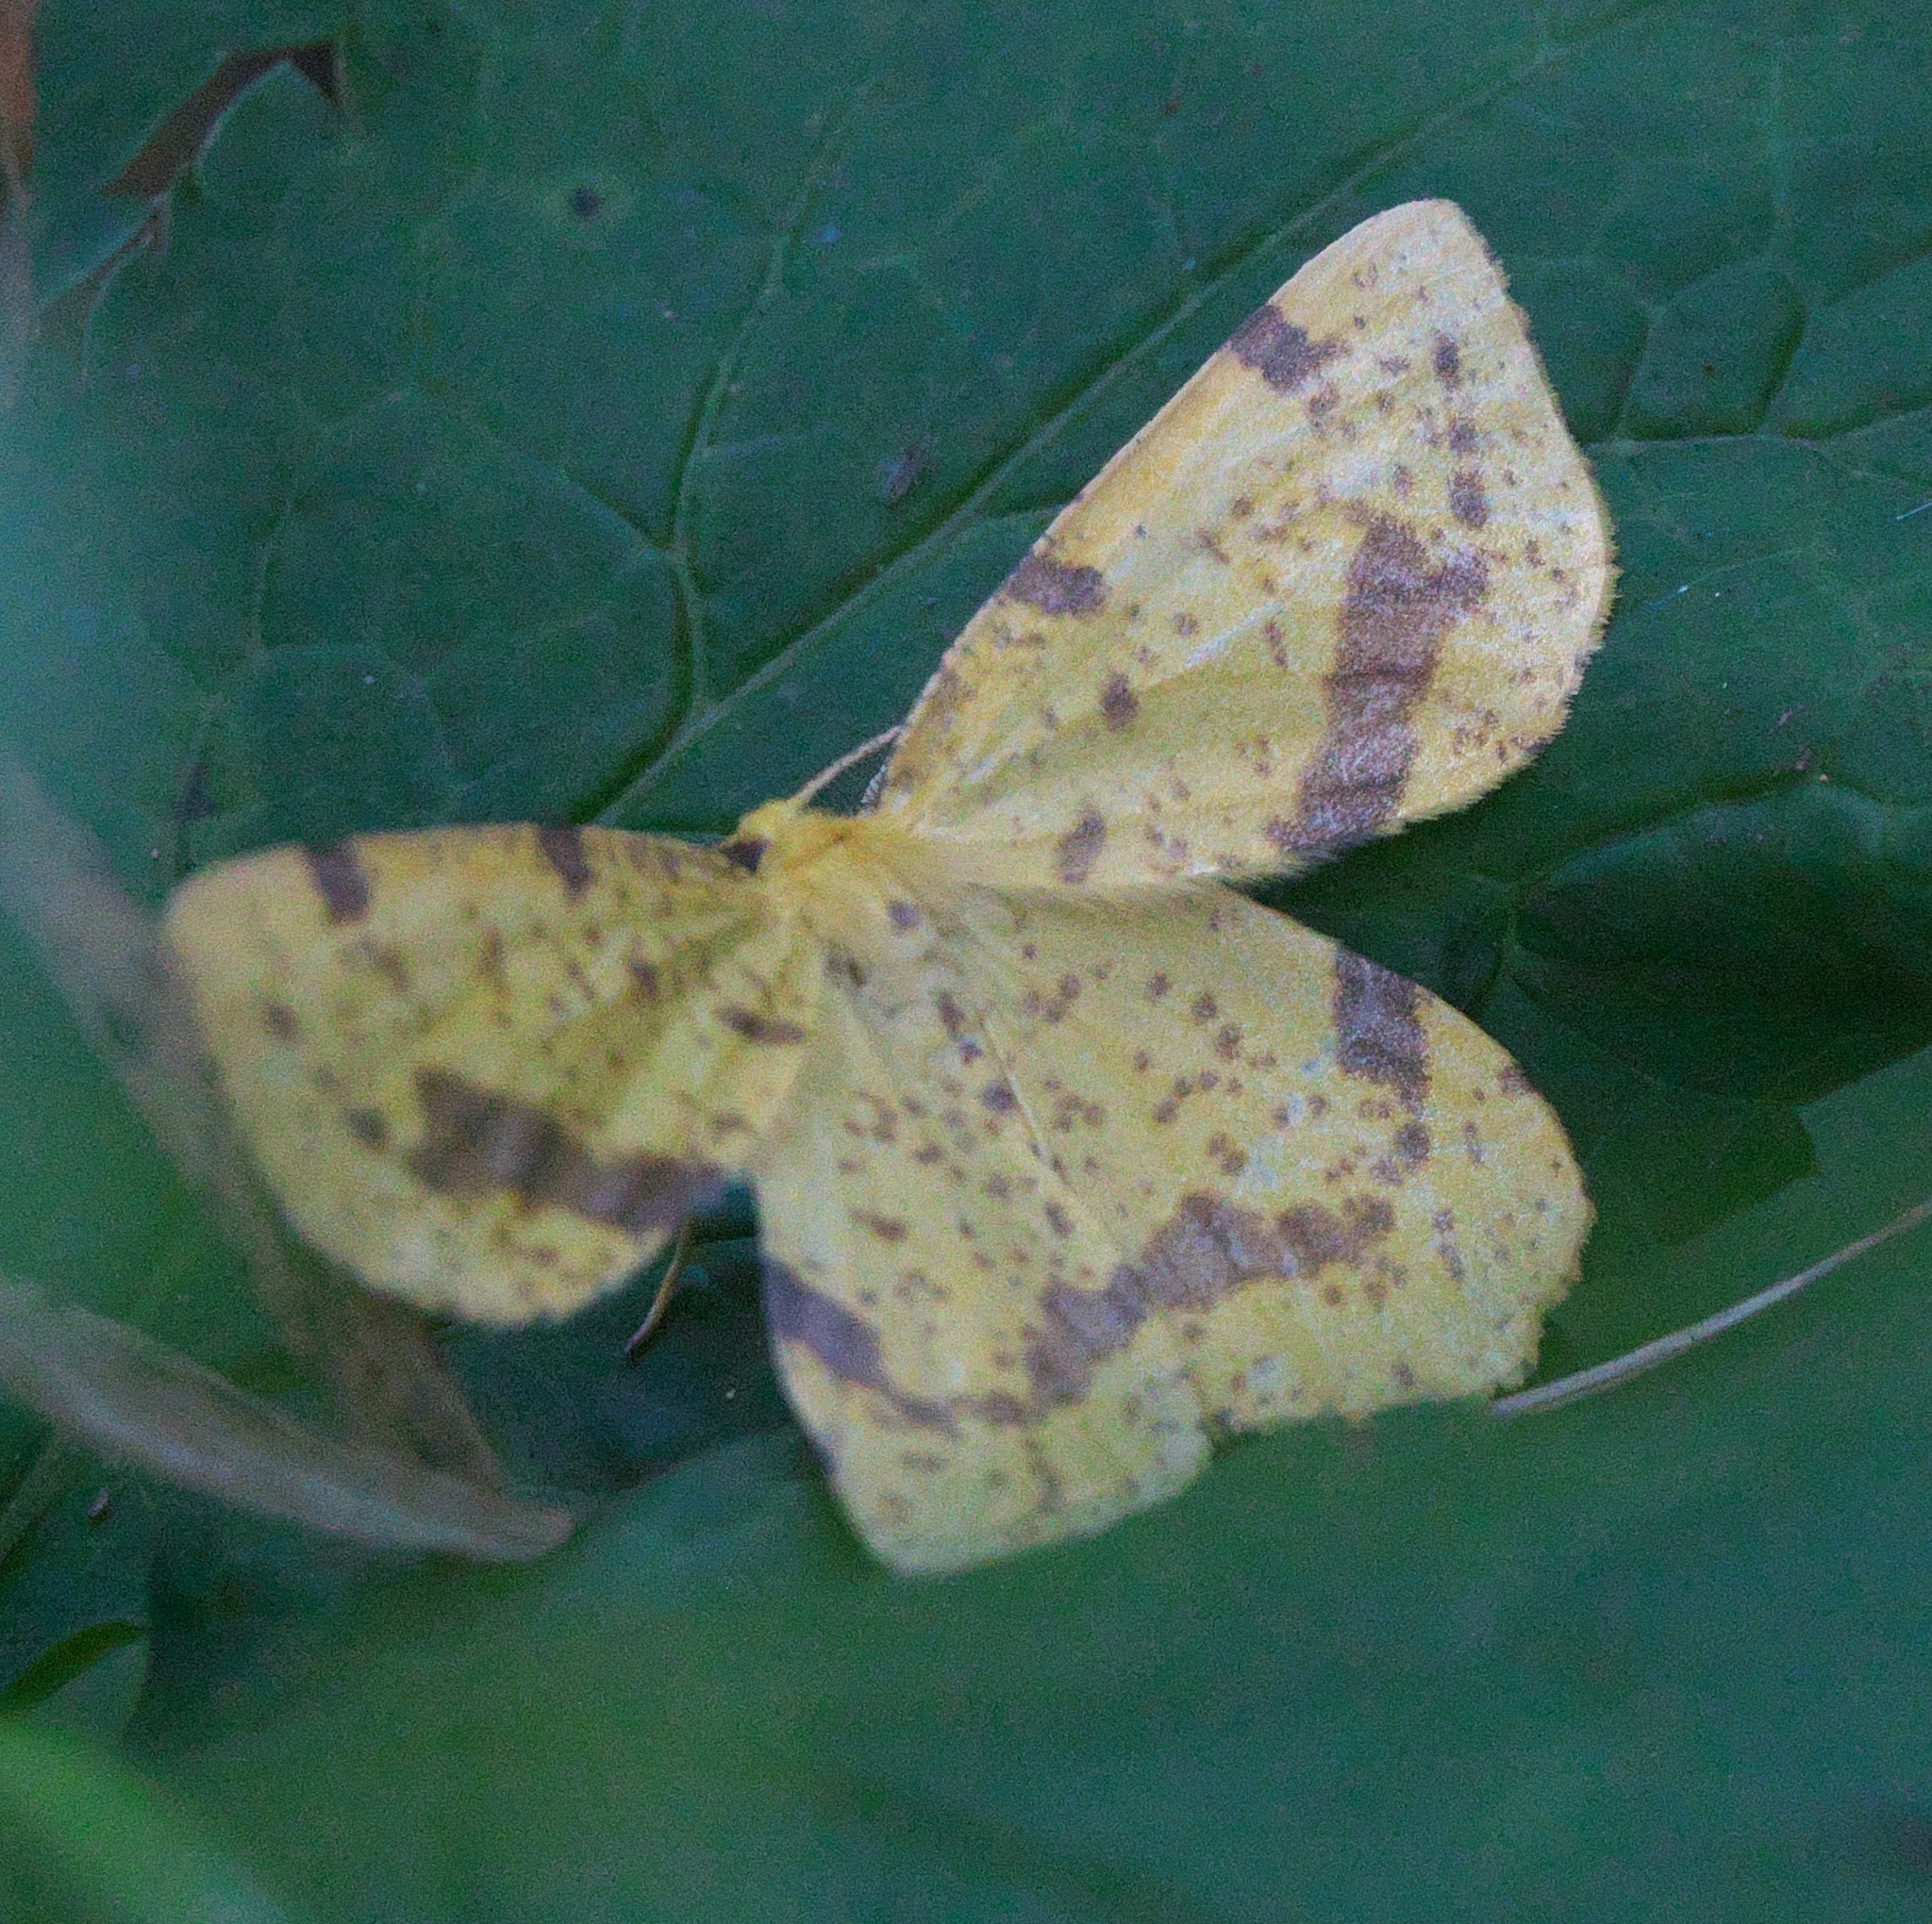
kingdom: Animalia
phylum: Arthropoda
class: Insecta
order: Lepidoptera
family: Geometridae
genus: Xanthotype
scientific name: Xanthotype
